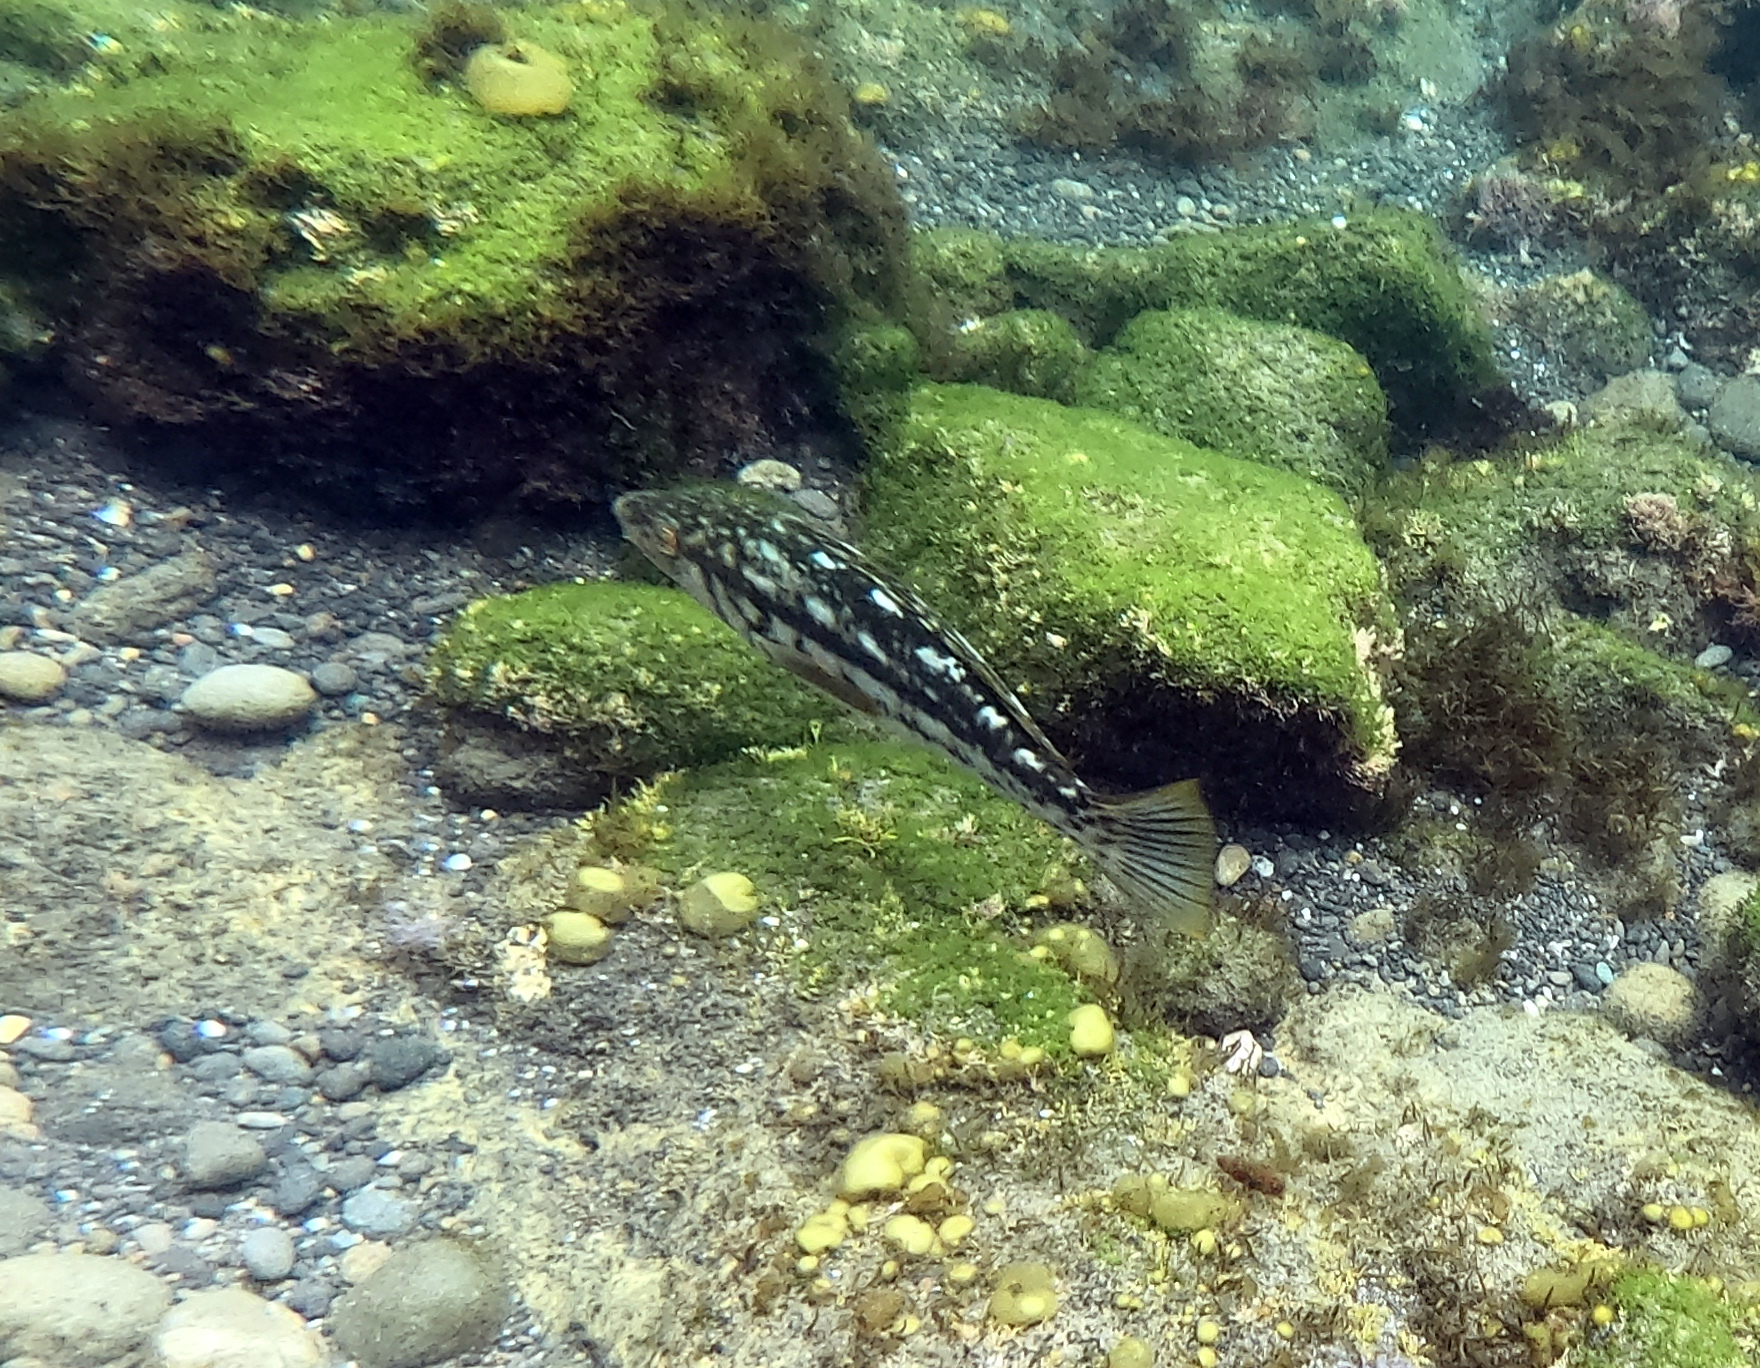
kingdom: Animalia
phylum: Chordata
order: Perciformes
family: Serranidae
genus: Paralabrax
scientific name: Paralabrax clathratus
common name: Kelp bass
